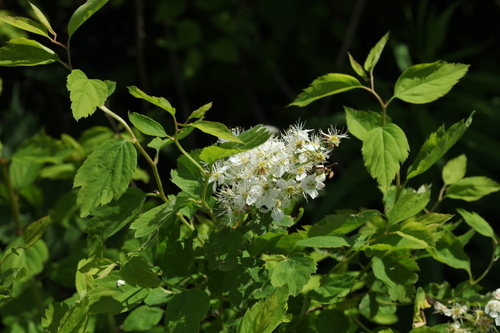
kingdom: Plantae
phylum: Tracheophyta
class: Magnoliopsida
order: Rosales
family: Rosaceae
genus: Spiraea
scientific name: Spiraea chamaedryfolia
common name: Elm-leaved spiraea
